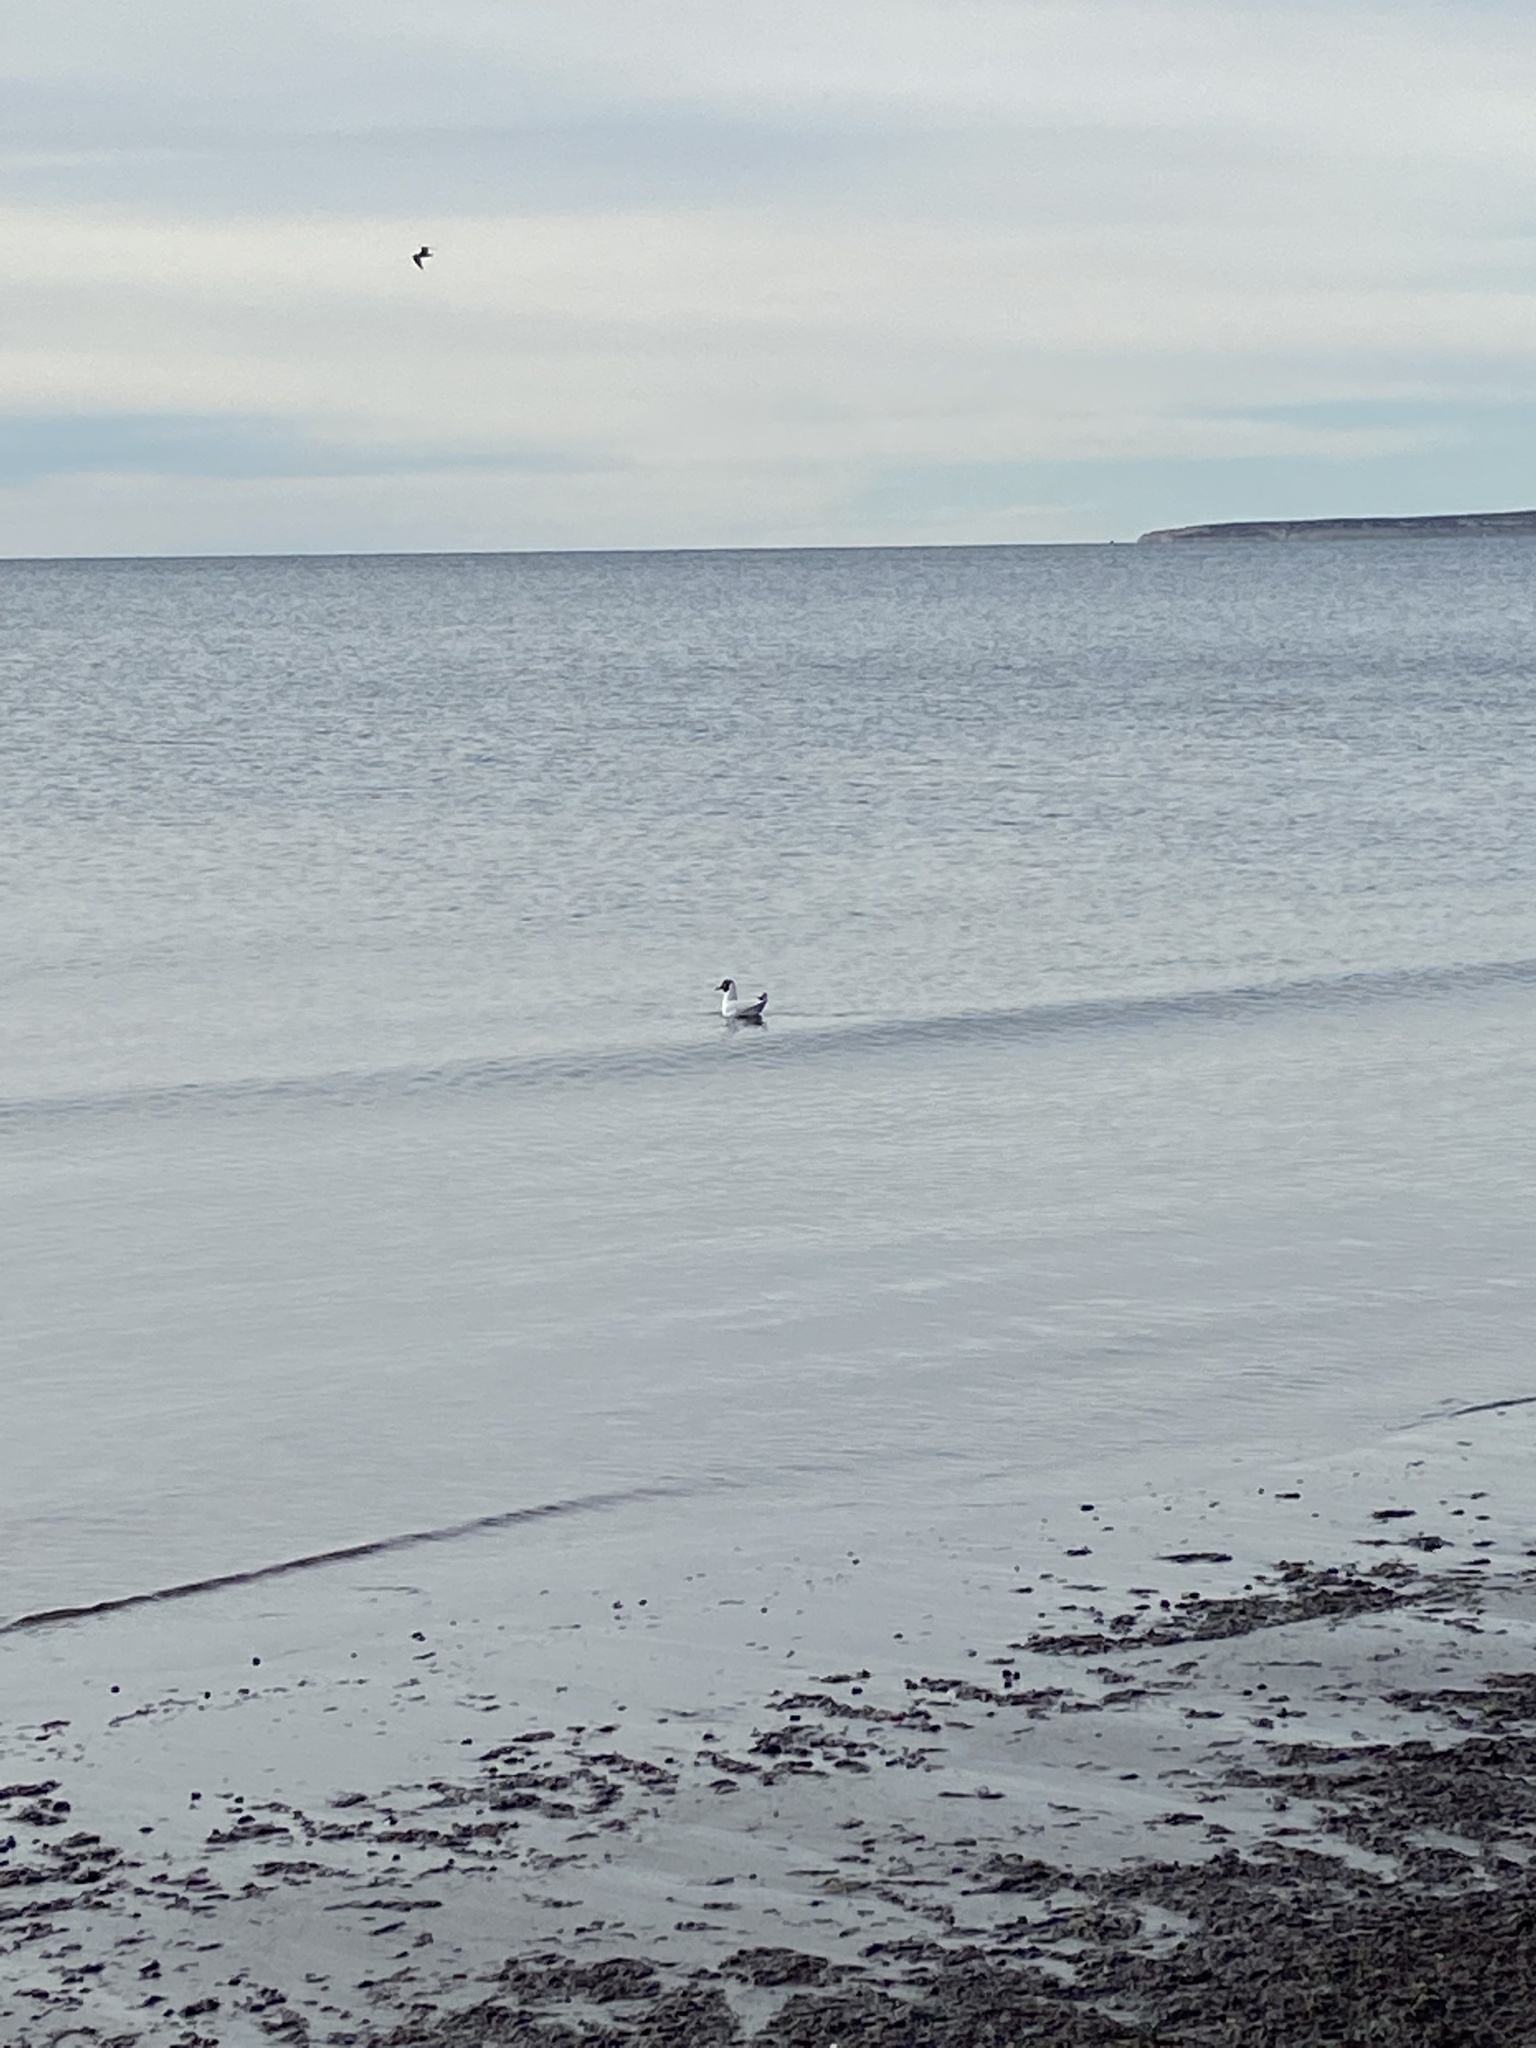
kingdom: Animalia
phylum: Chordata
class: Aves
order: Charadriiformes
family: Laridae
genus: Chroicocephalus
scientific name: Chroicocephalus maculipennis
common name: Brown-hooded gull
